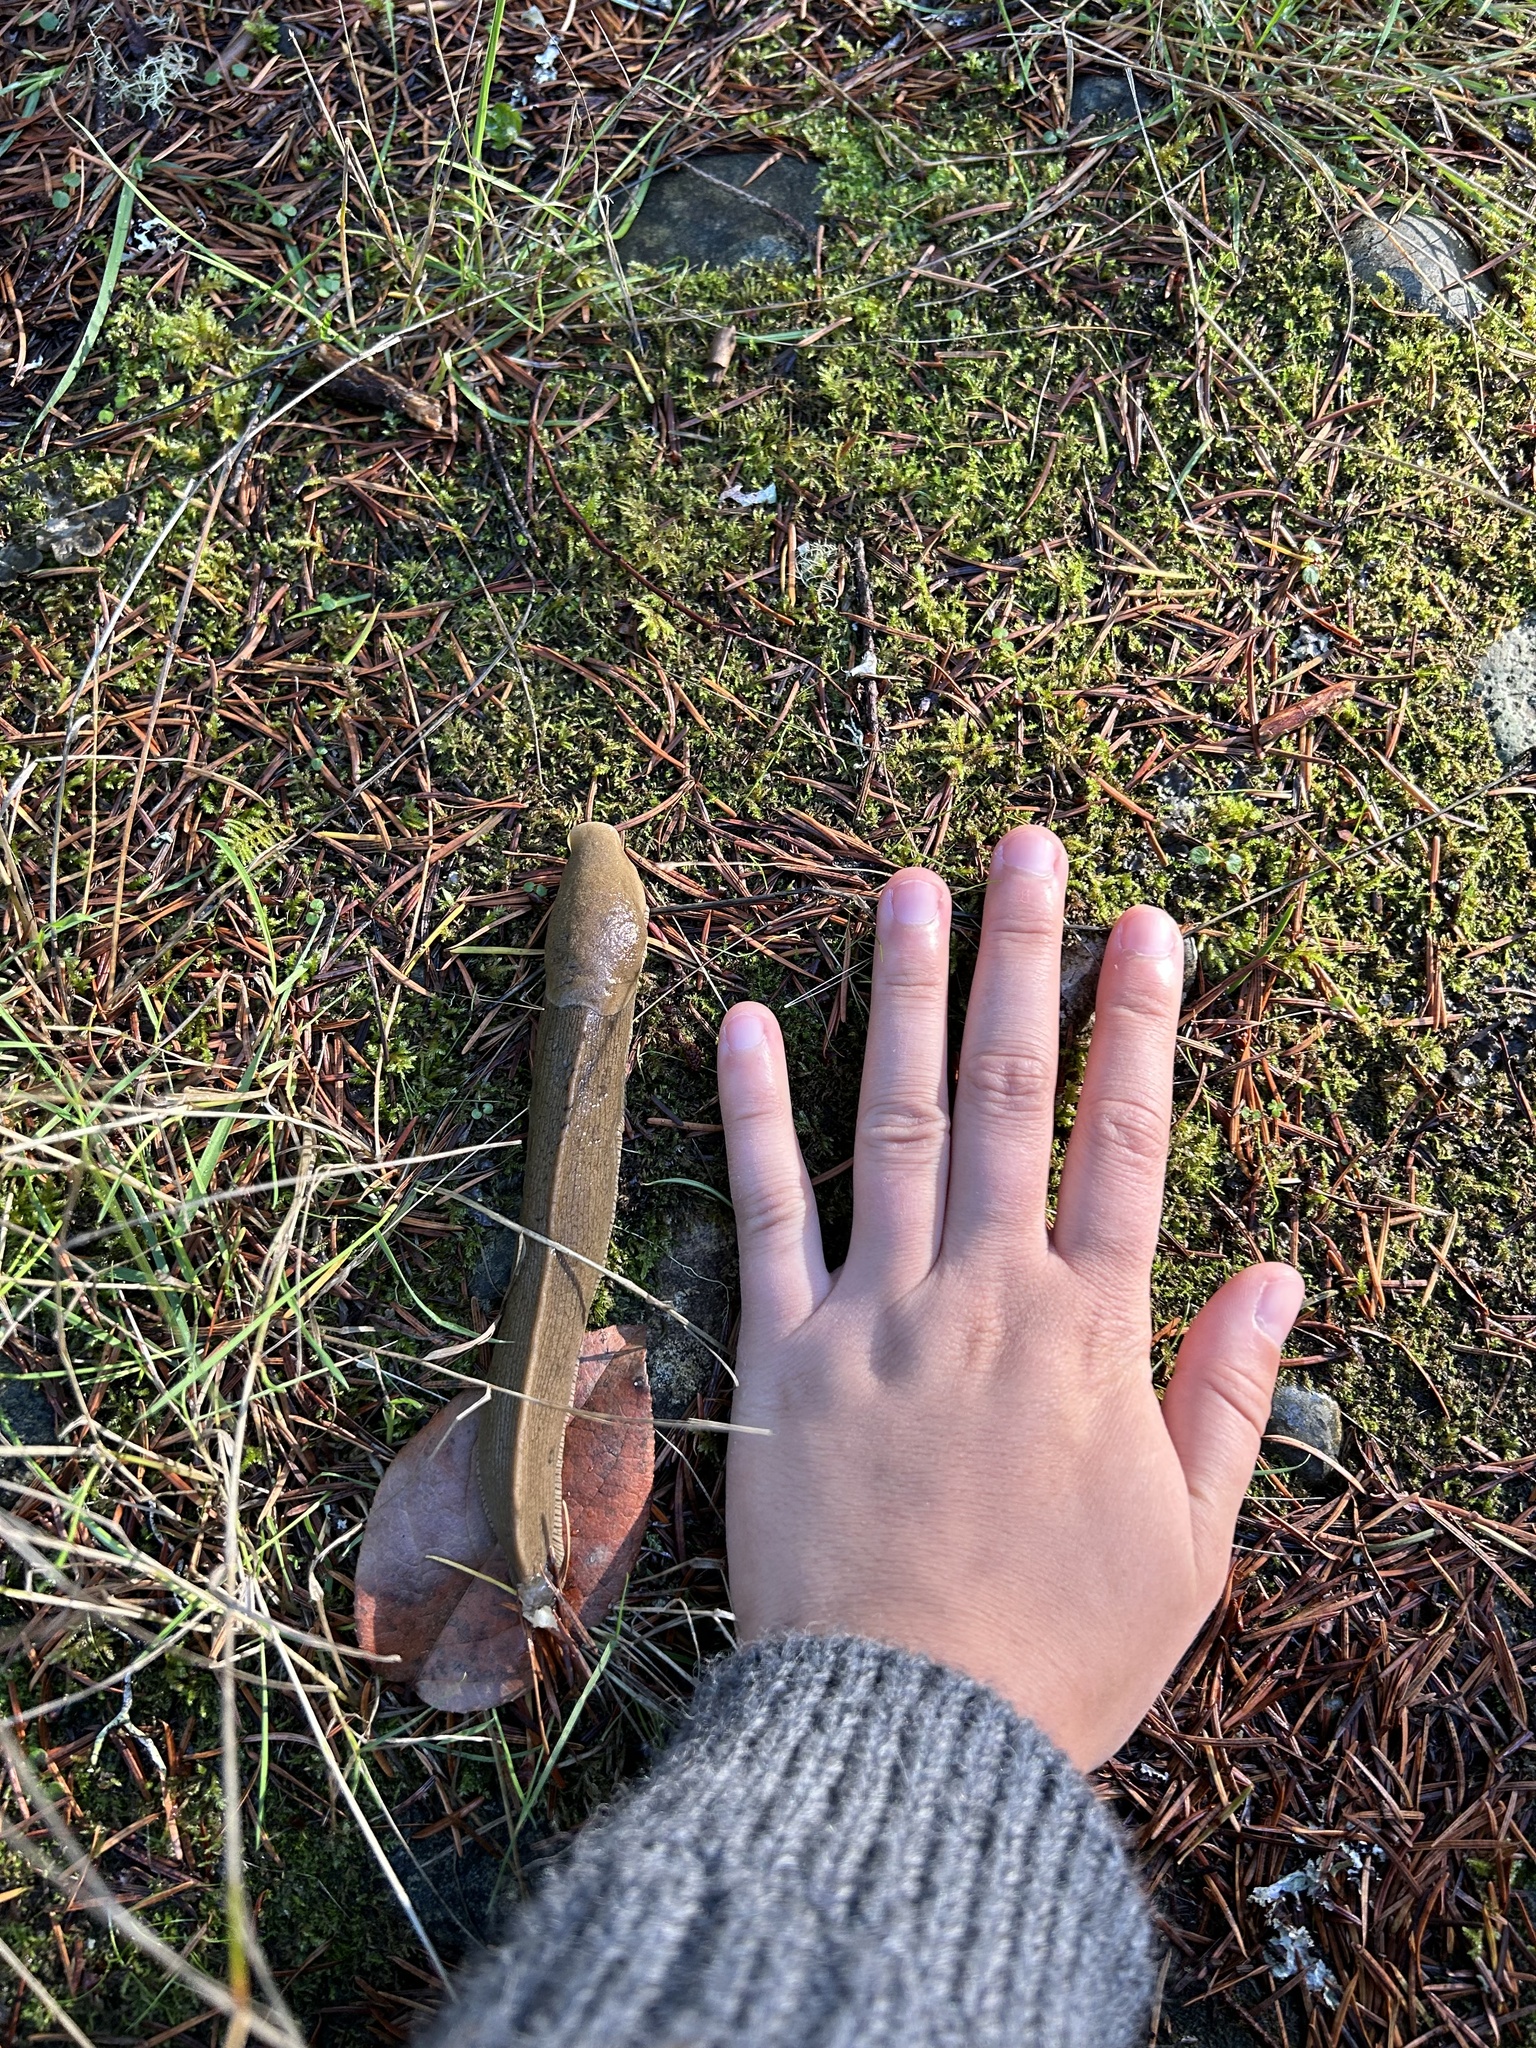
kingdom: Animalia
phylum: Mollusca
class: Gastropoda
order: Stylommatophora
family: Ariolimacidae
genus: Ariolimax
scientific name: Ariolimax columbianus
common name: Pacific banana slug
